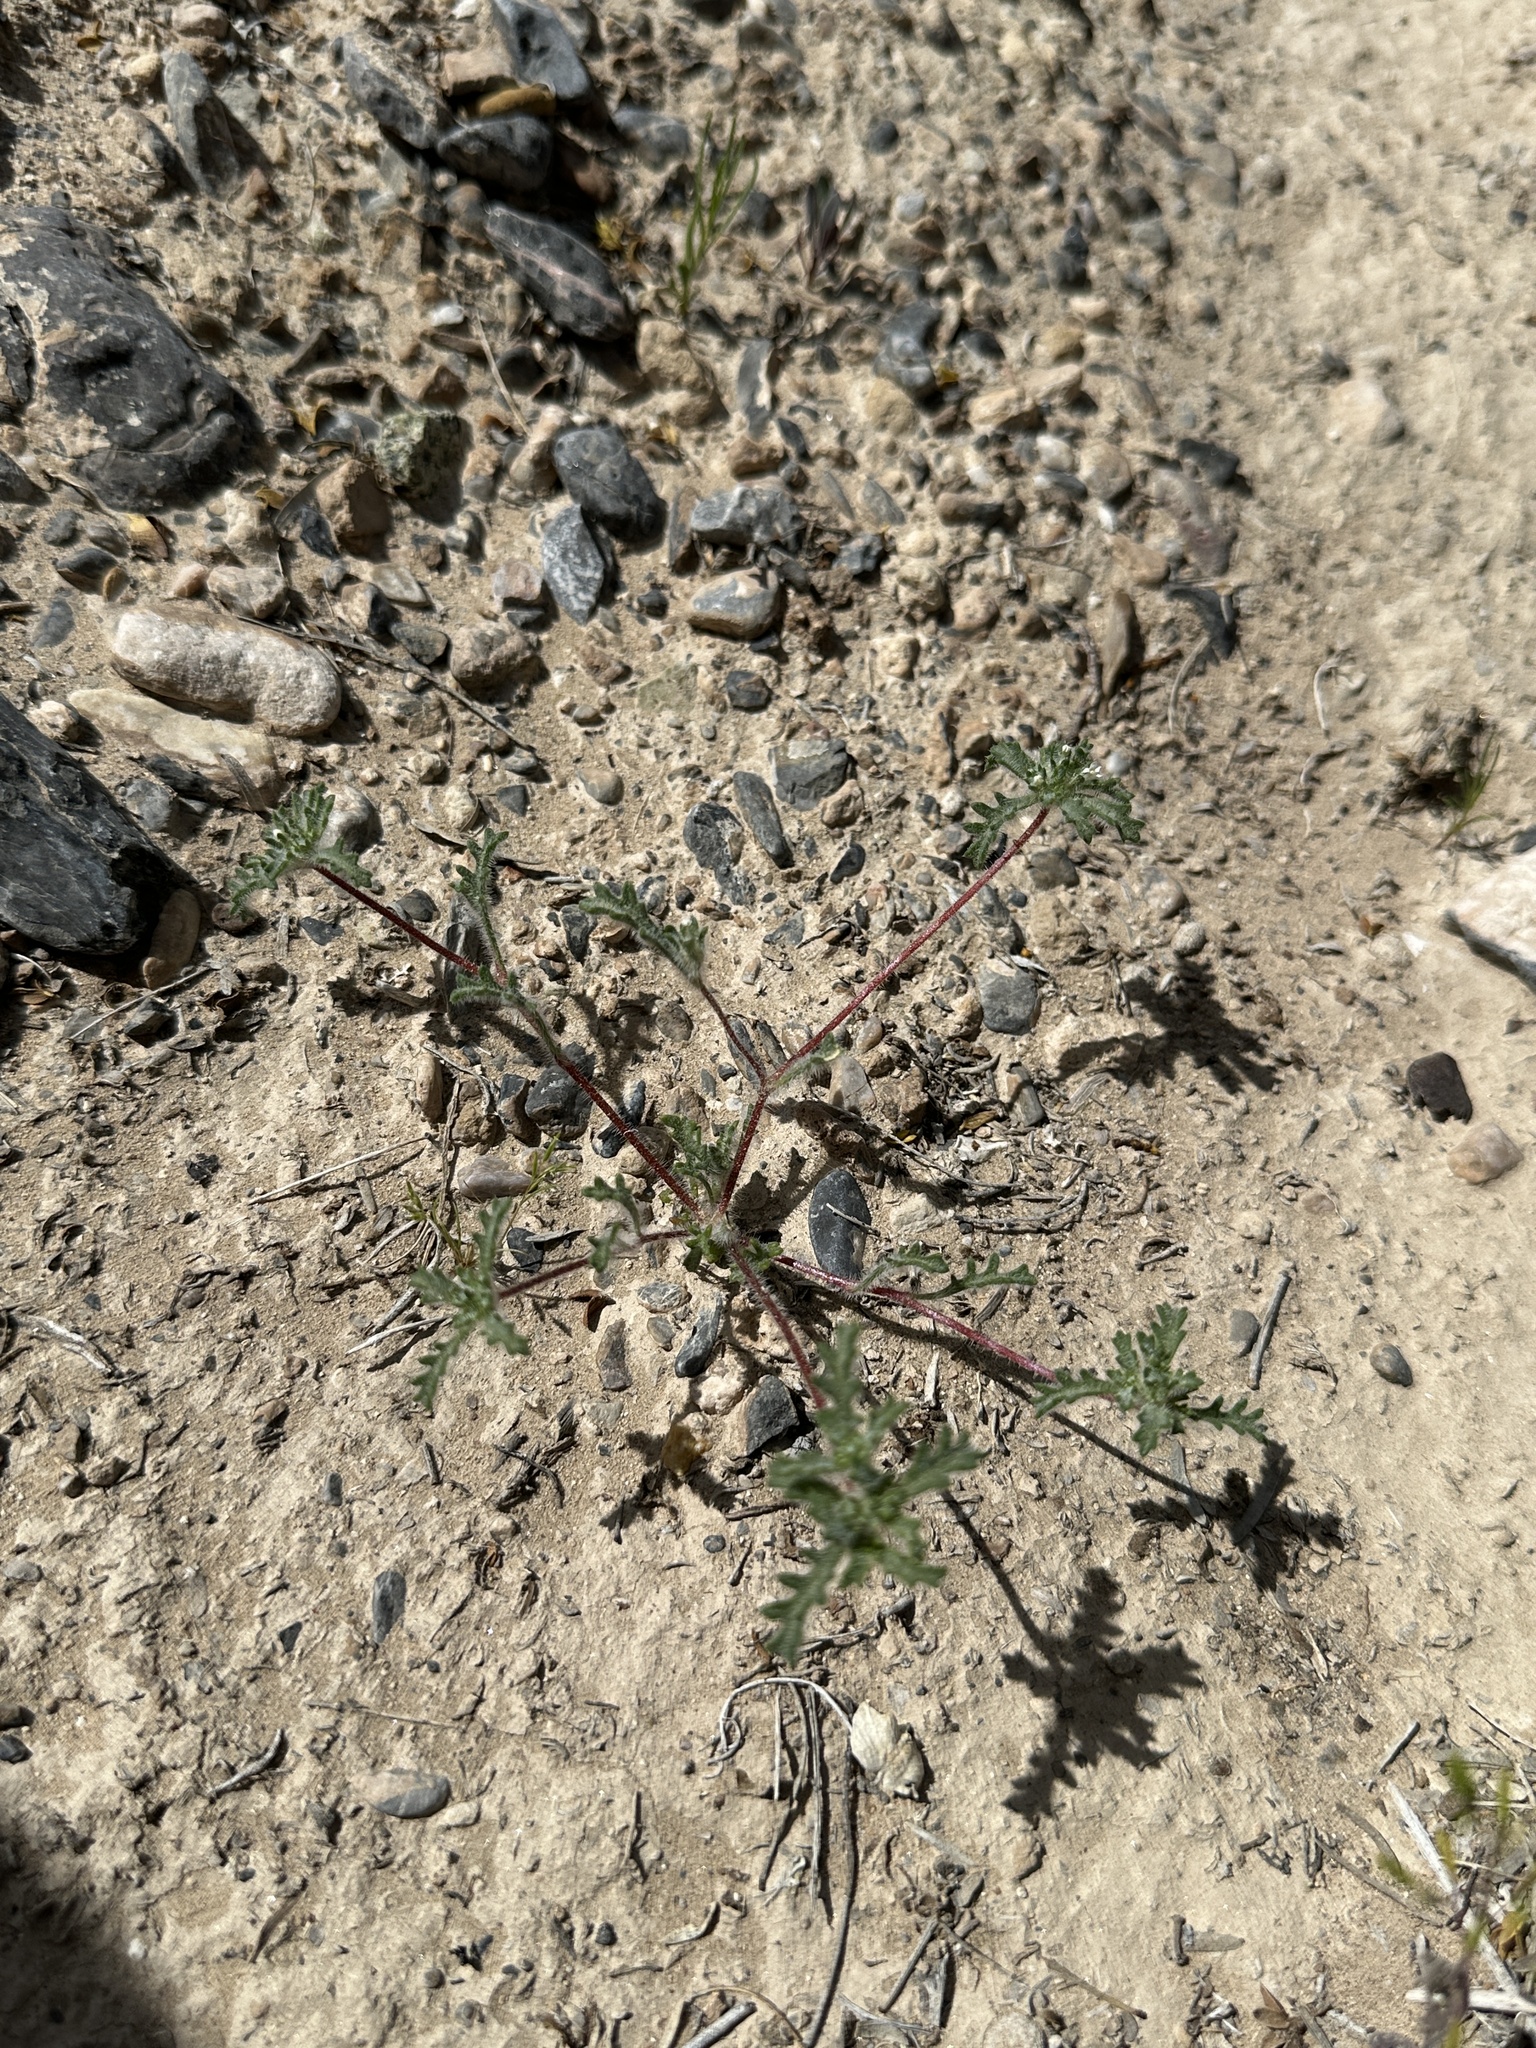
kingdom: Plantae
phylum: Tracheophyta
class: Magnoliopsida
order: Ericales
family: Polemoniaceae
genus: Ipomopsis
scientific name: Ipomopsis polycladon
